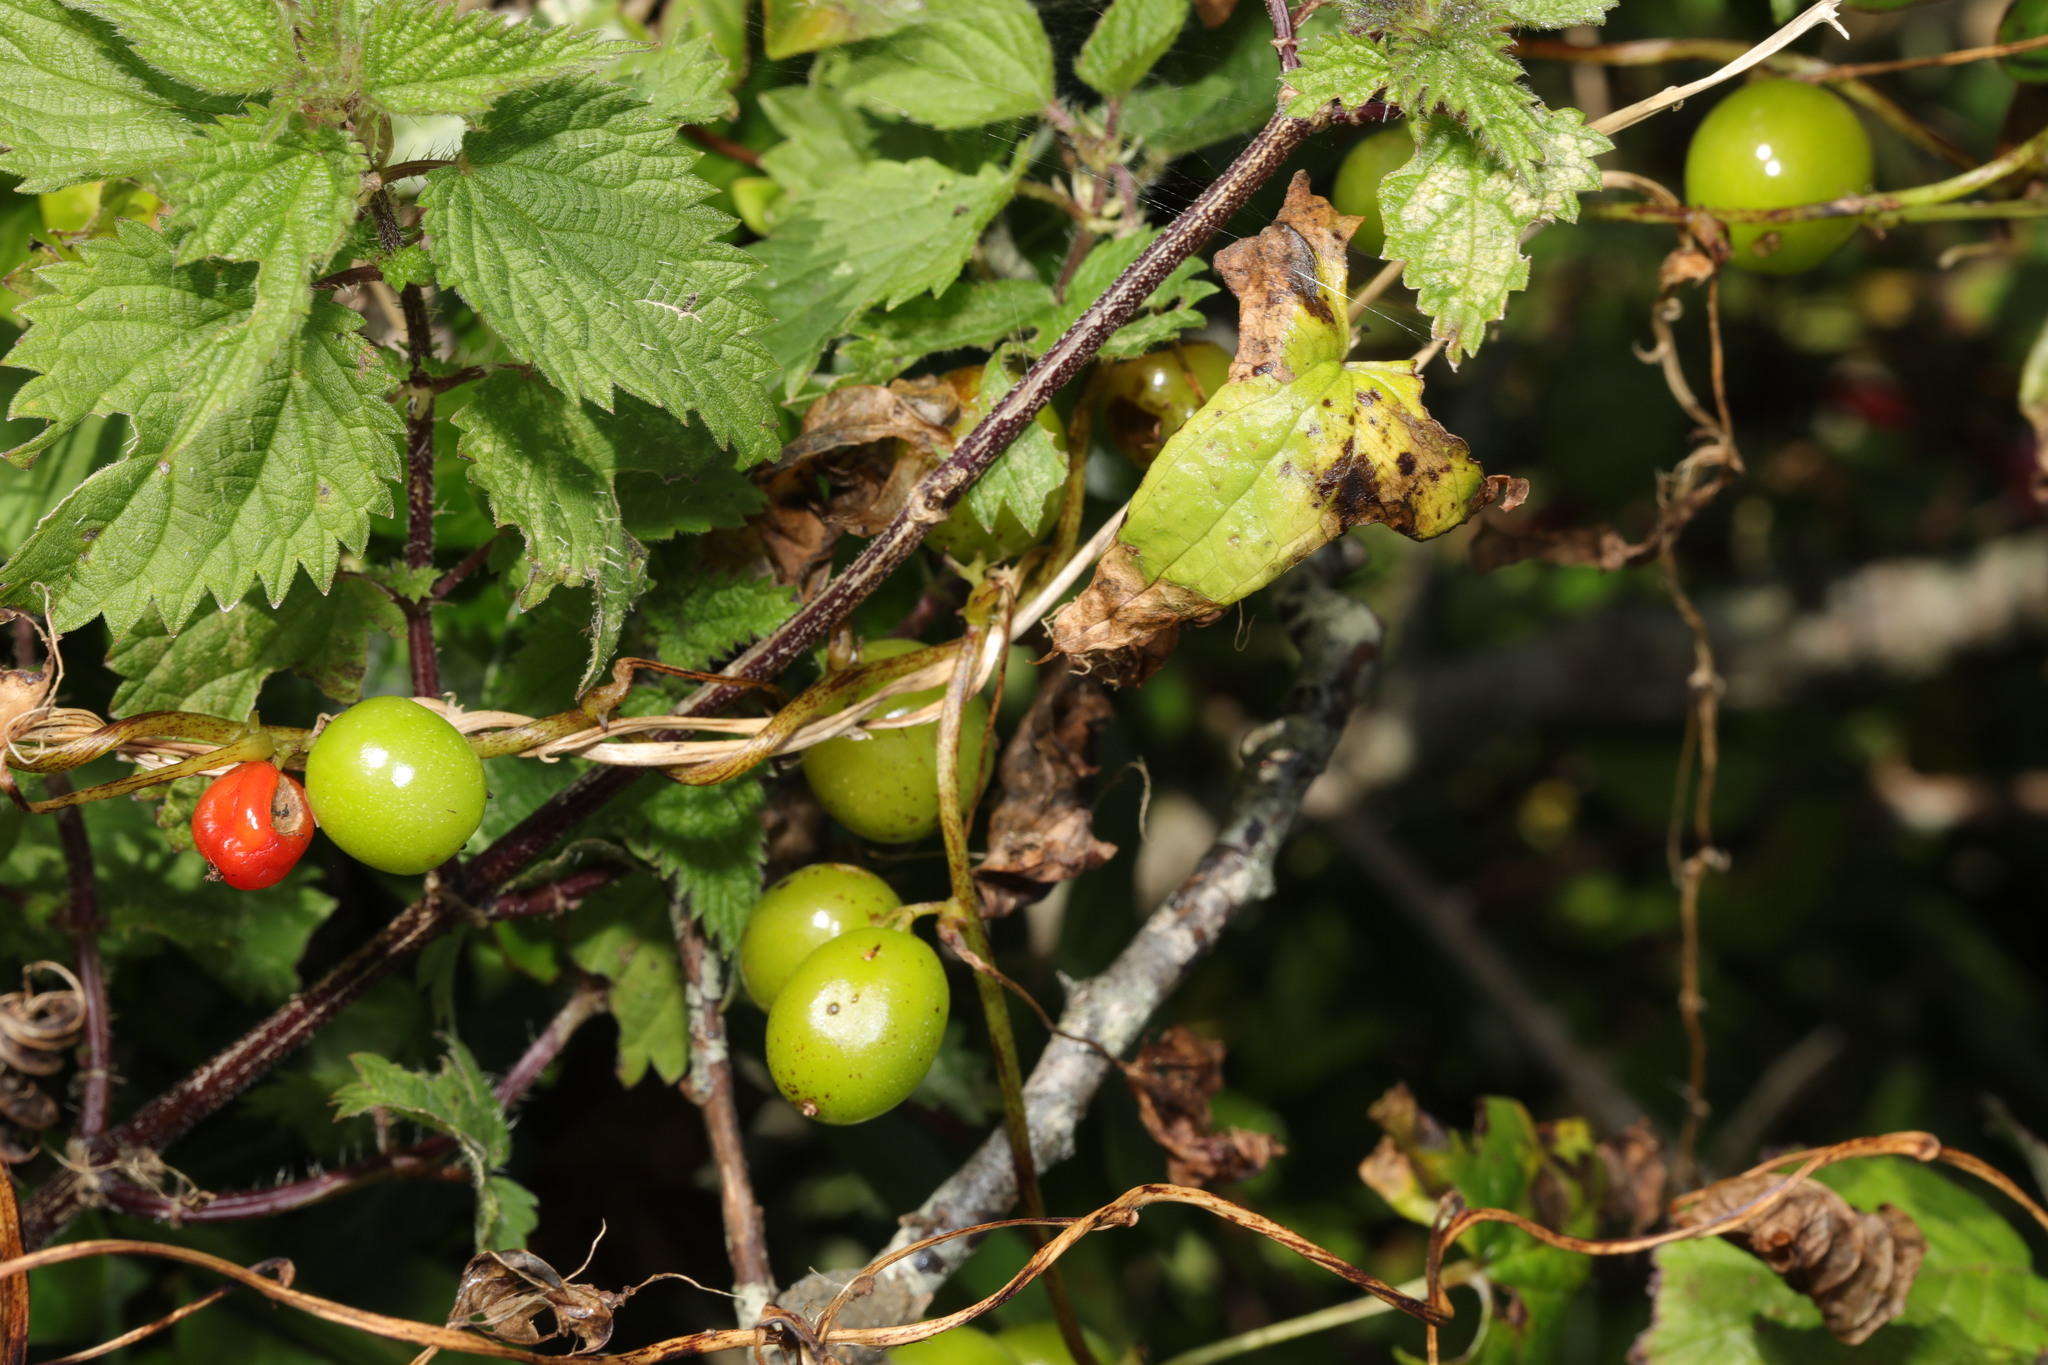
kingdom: Plantae
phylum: Tracheophyta
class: Liliopsida
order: Dioscoreales
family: Dioscoreaceae
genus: Dioscorea
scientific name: Dioscorea communis
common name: Black-bindweed
